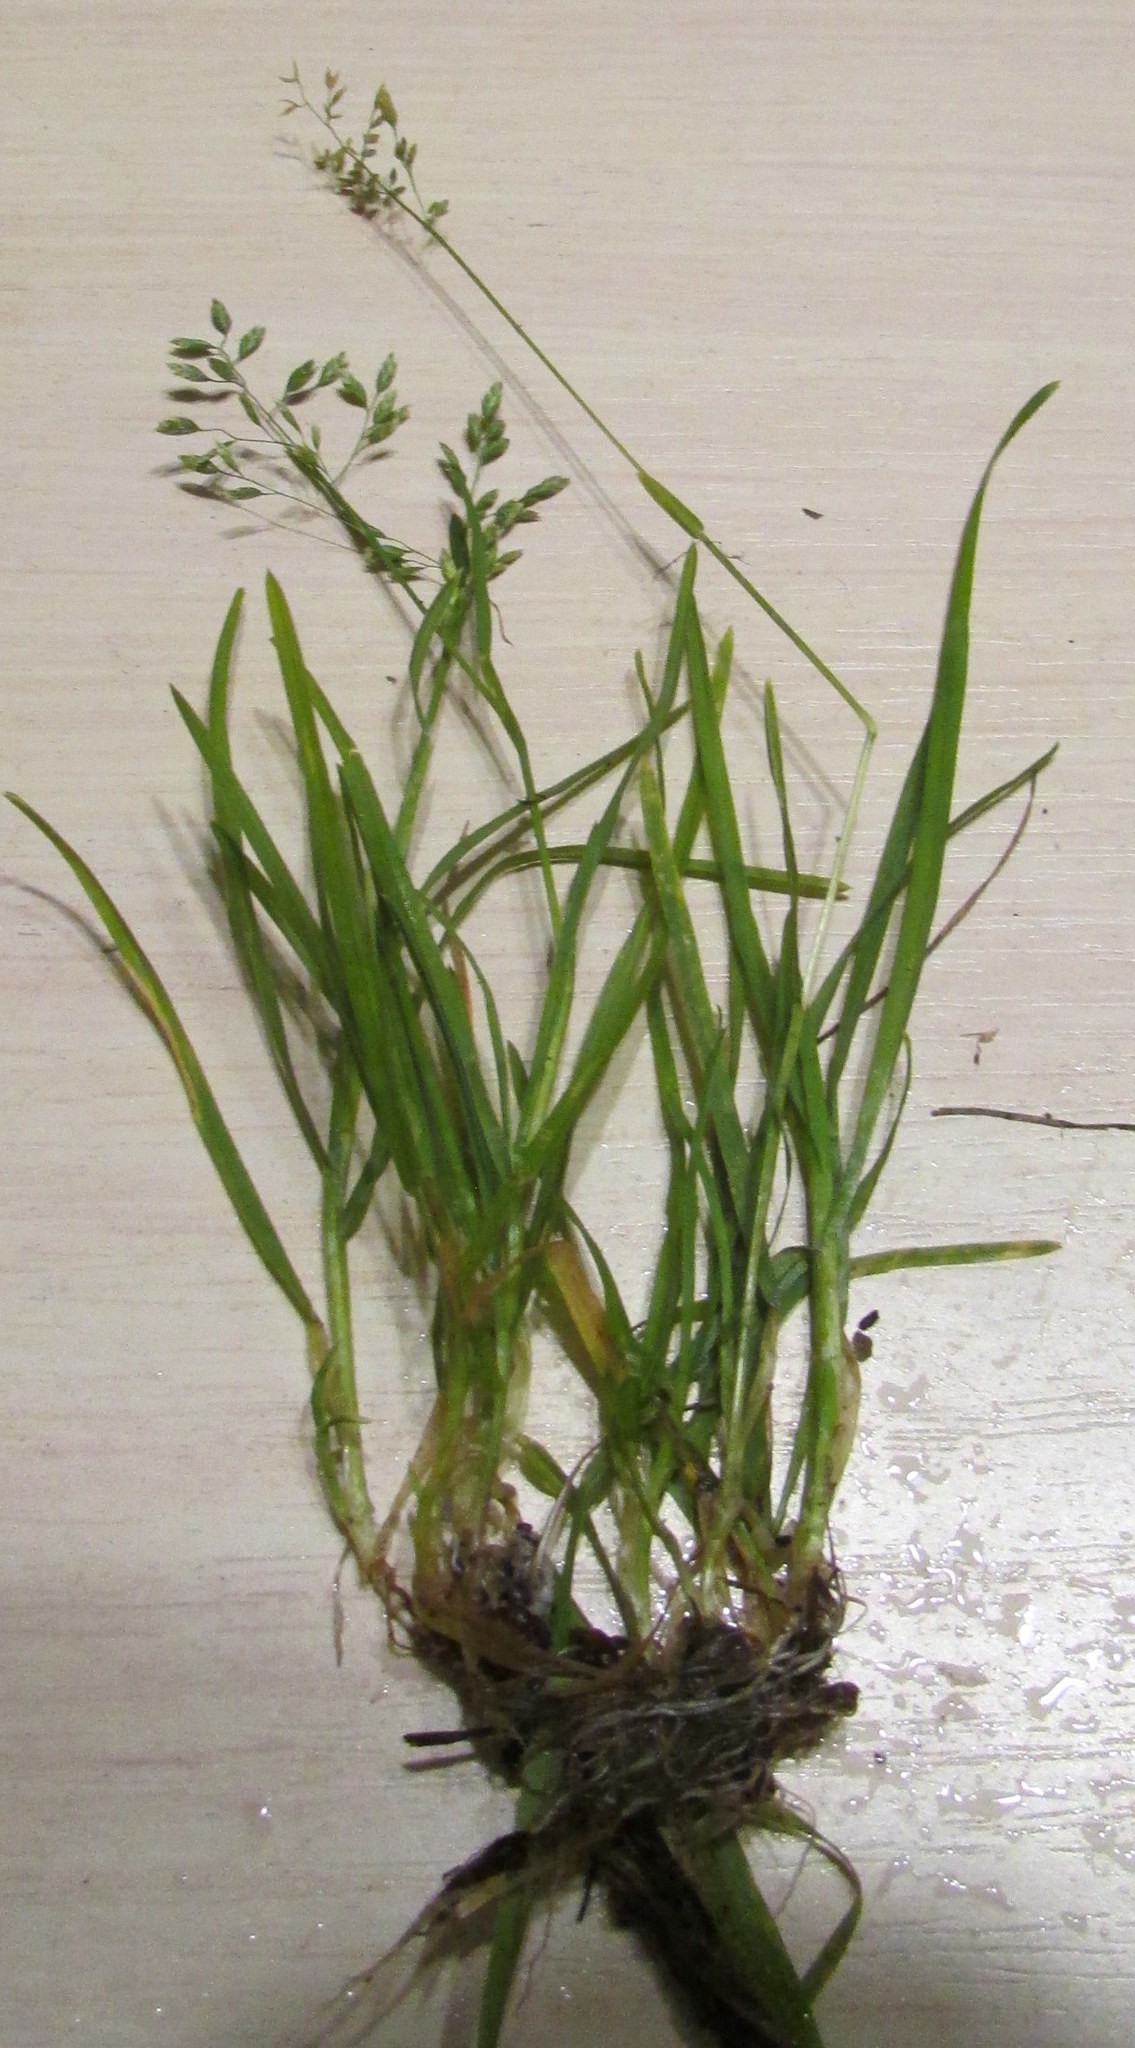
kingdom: Plantae
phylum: Tracheophyta
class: Liliopsida
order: Poales
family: Poaceae
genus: Poa
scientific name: Poa annua
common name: Annual bluegrass
